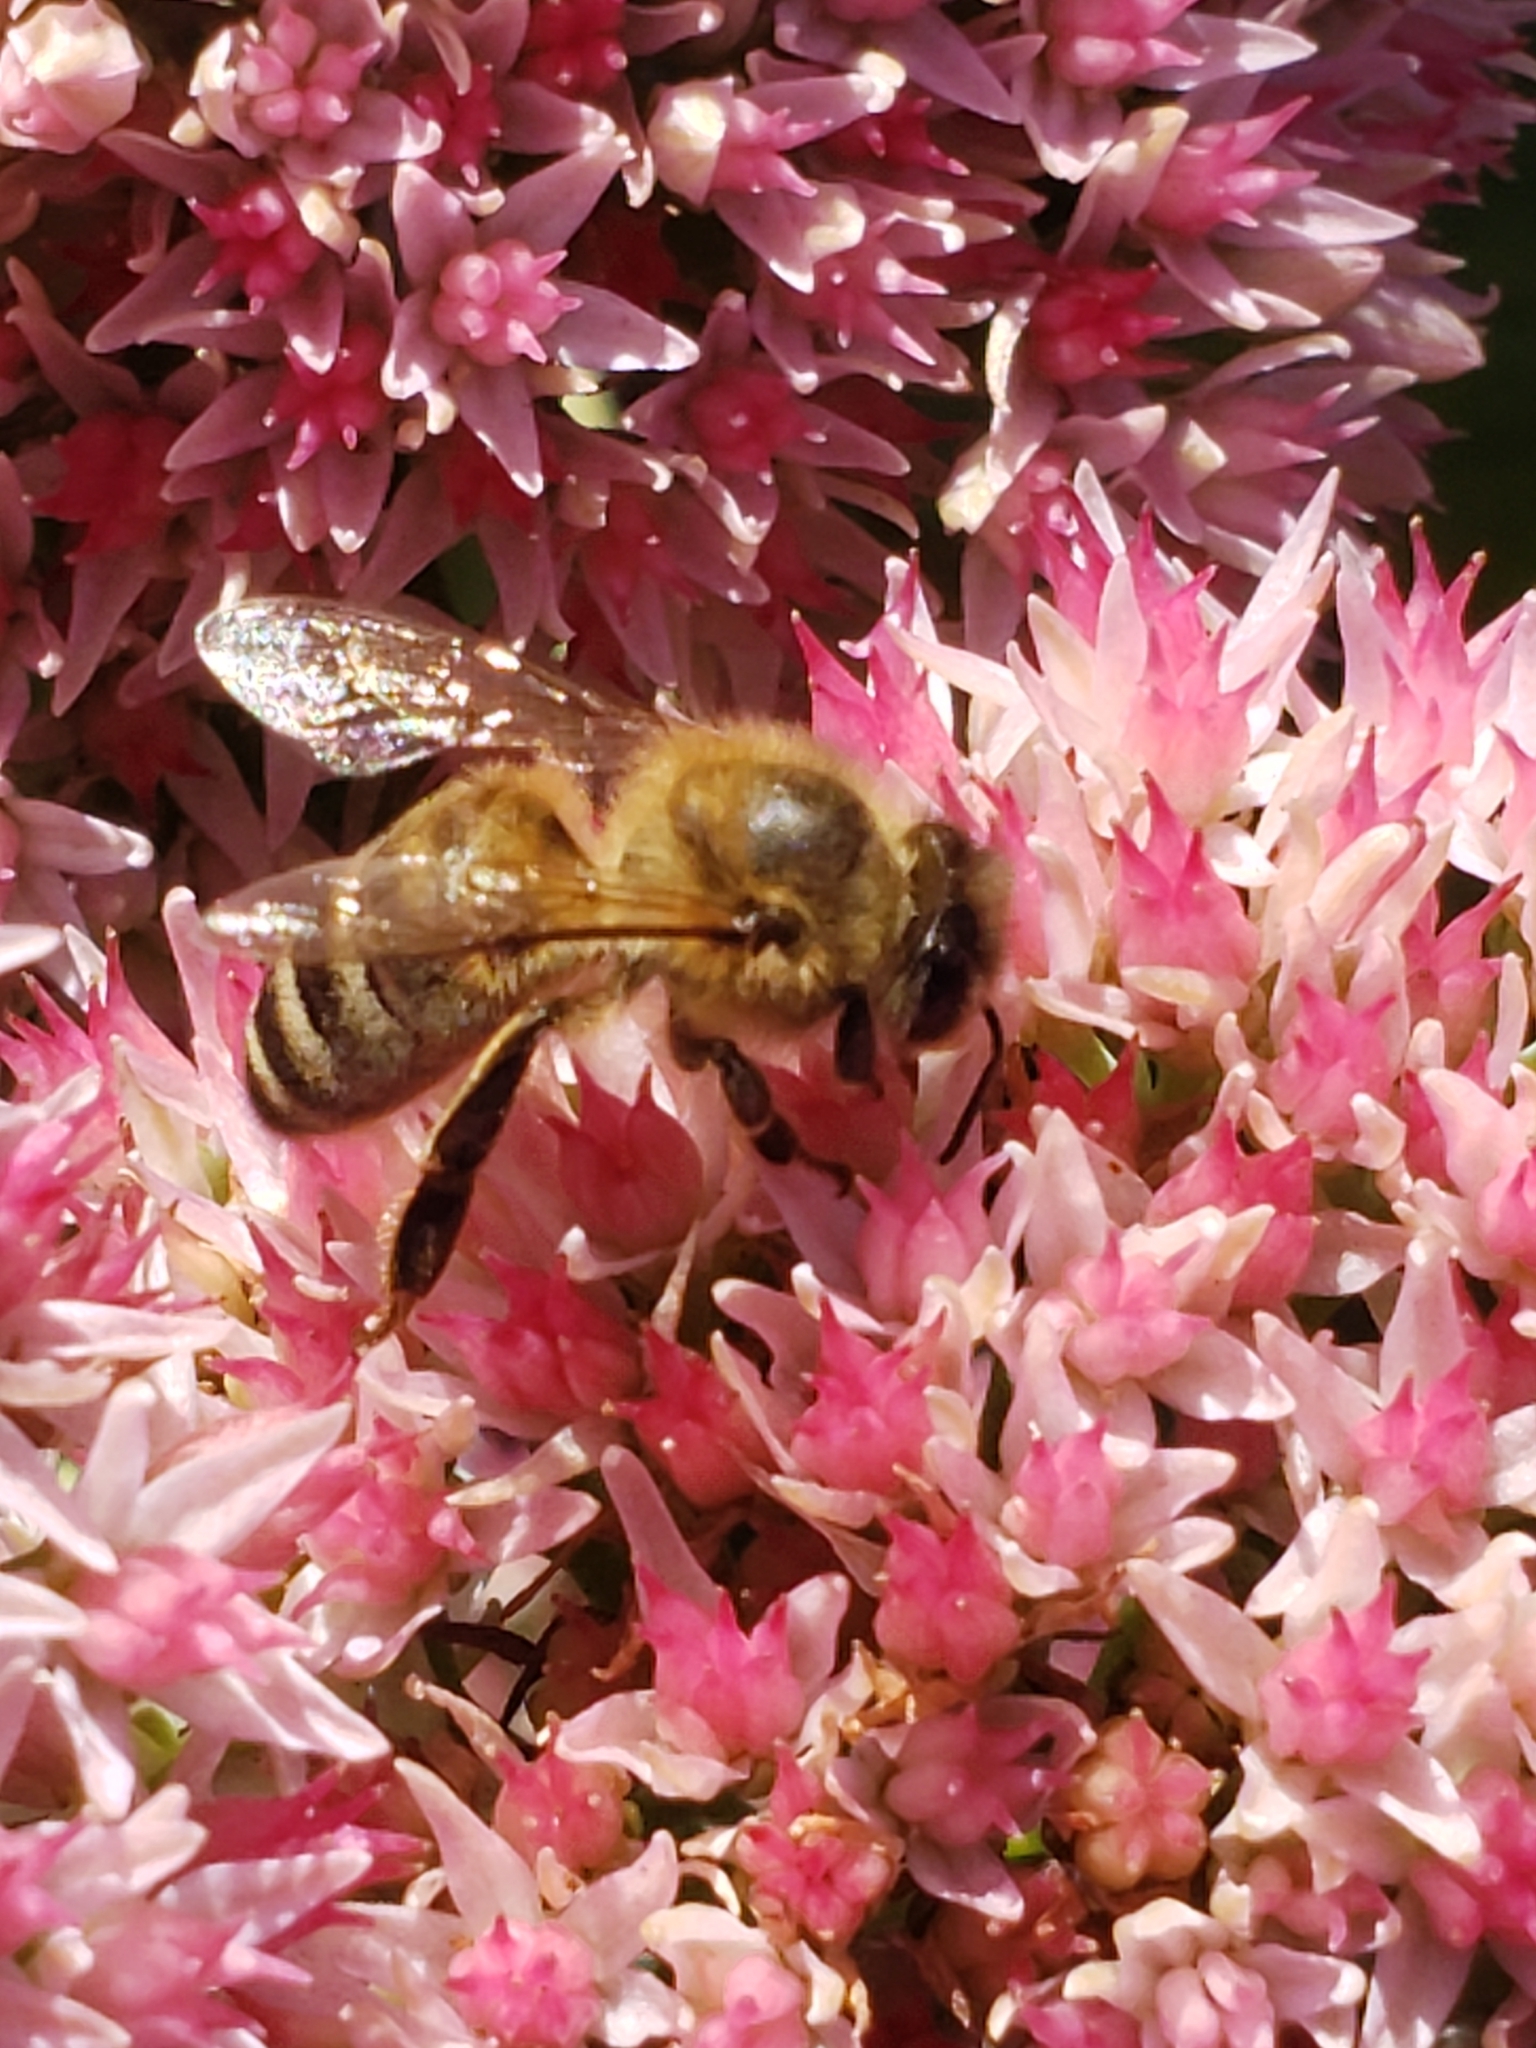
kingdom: Animalia
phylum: Arthropoda
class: Insecta
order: Hymenoptera
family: Apidae
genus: Apis
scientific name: Apis mellifera
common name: Honey bee
